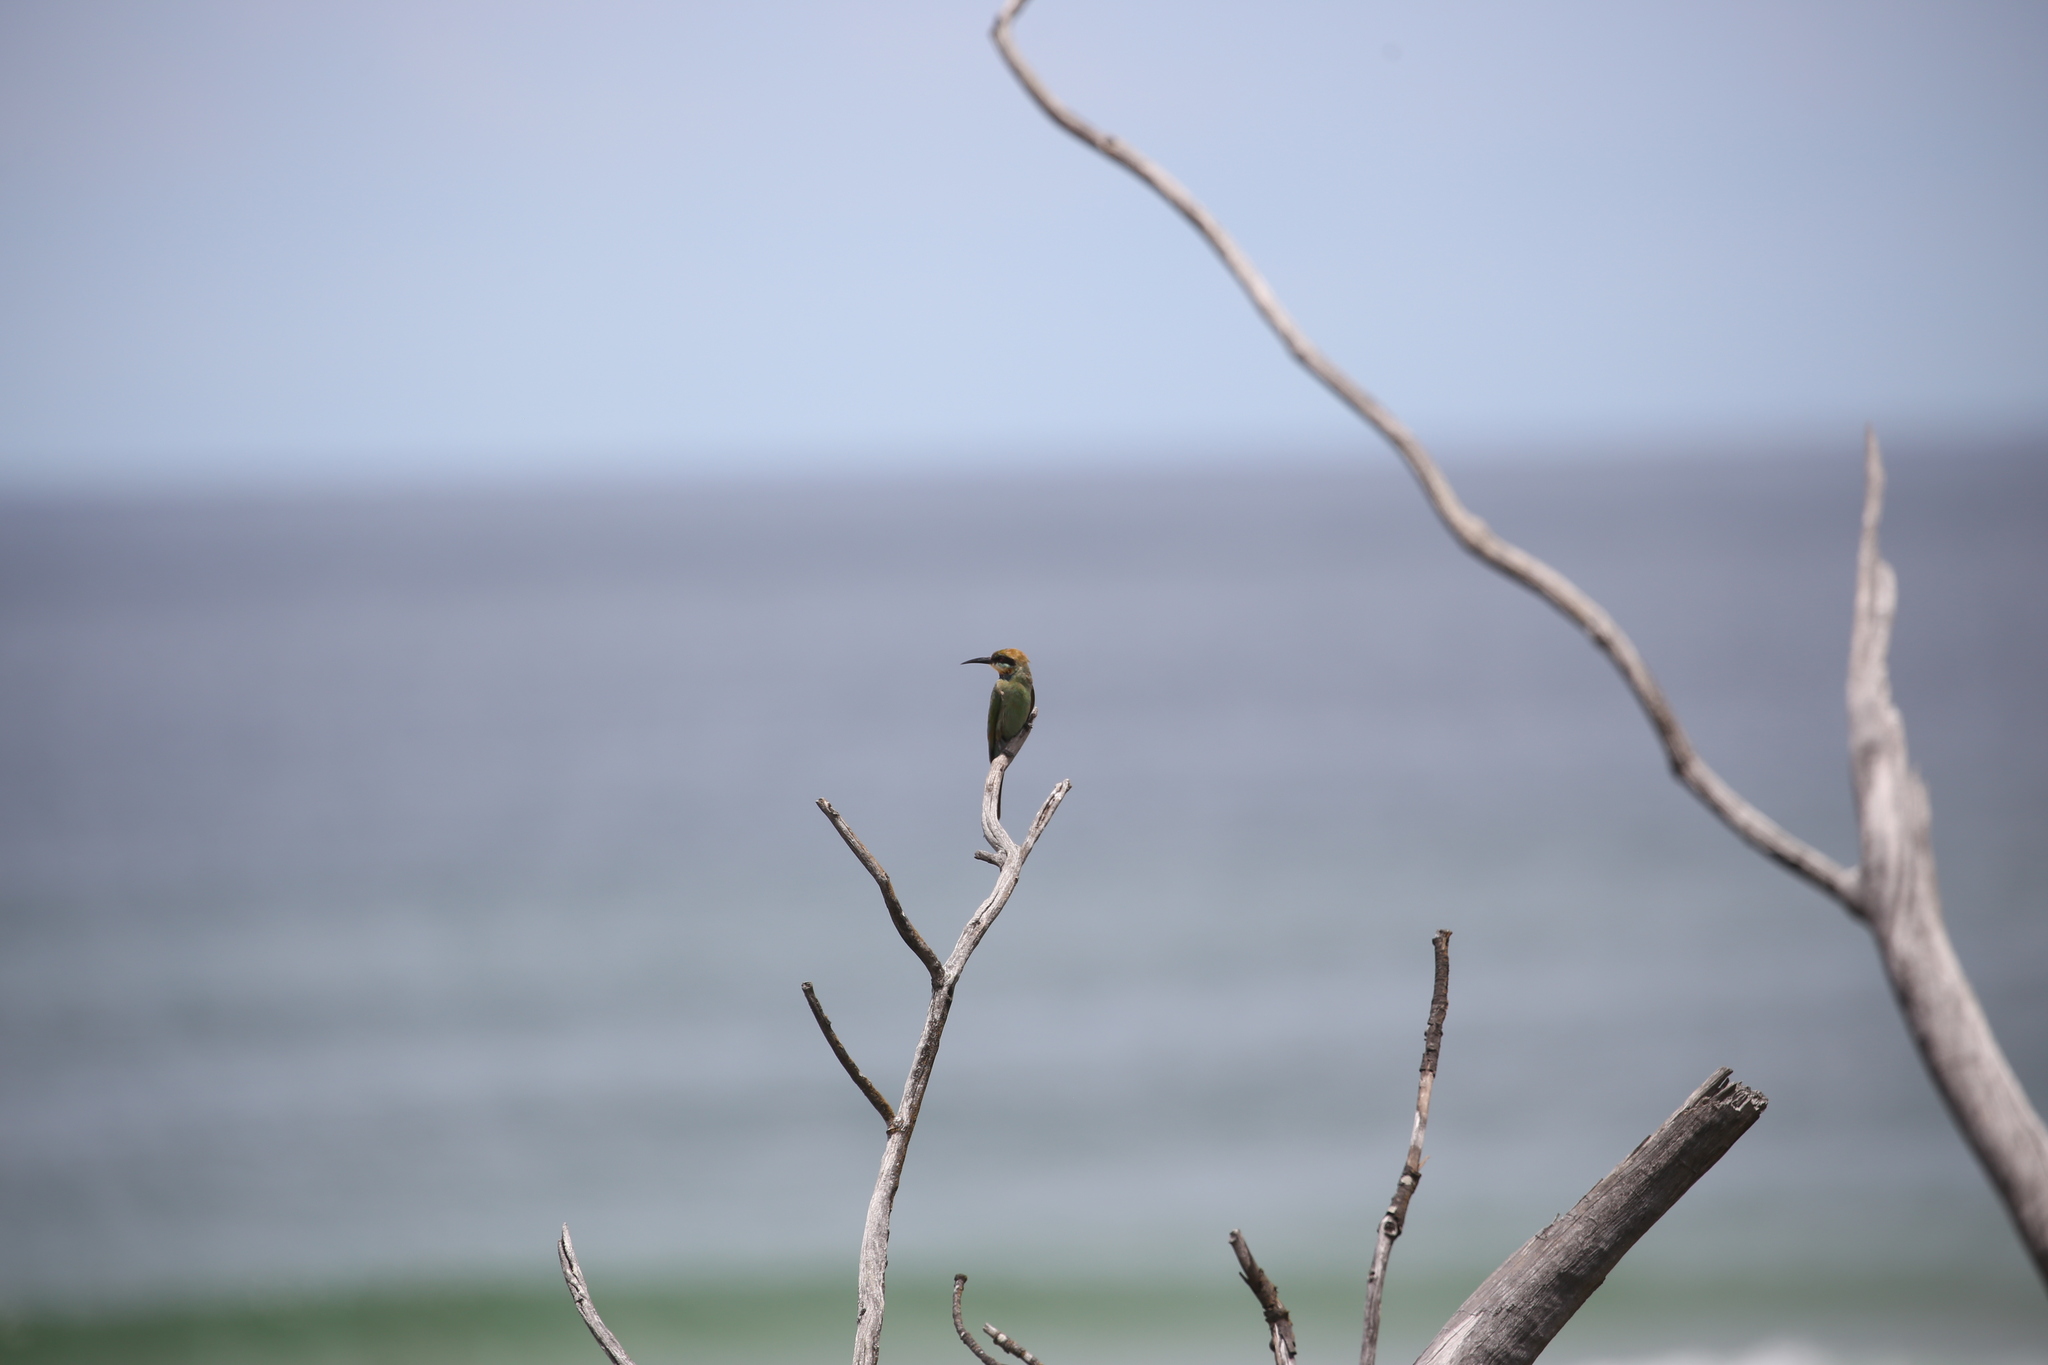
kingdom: Animalia
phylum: Chordata
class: Aves
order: Coraciiformes
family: Meropidae
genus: Merops
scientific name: Merops ornatus
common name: Rainbow bee-eater
